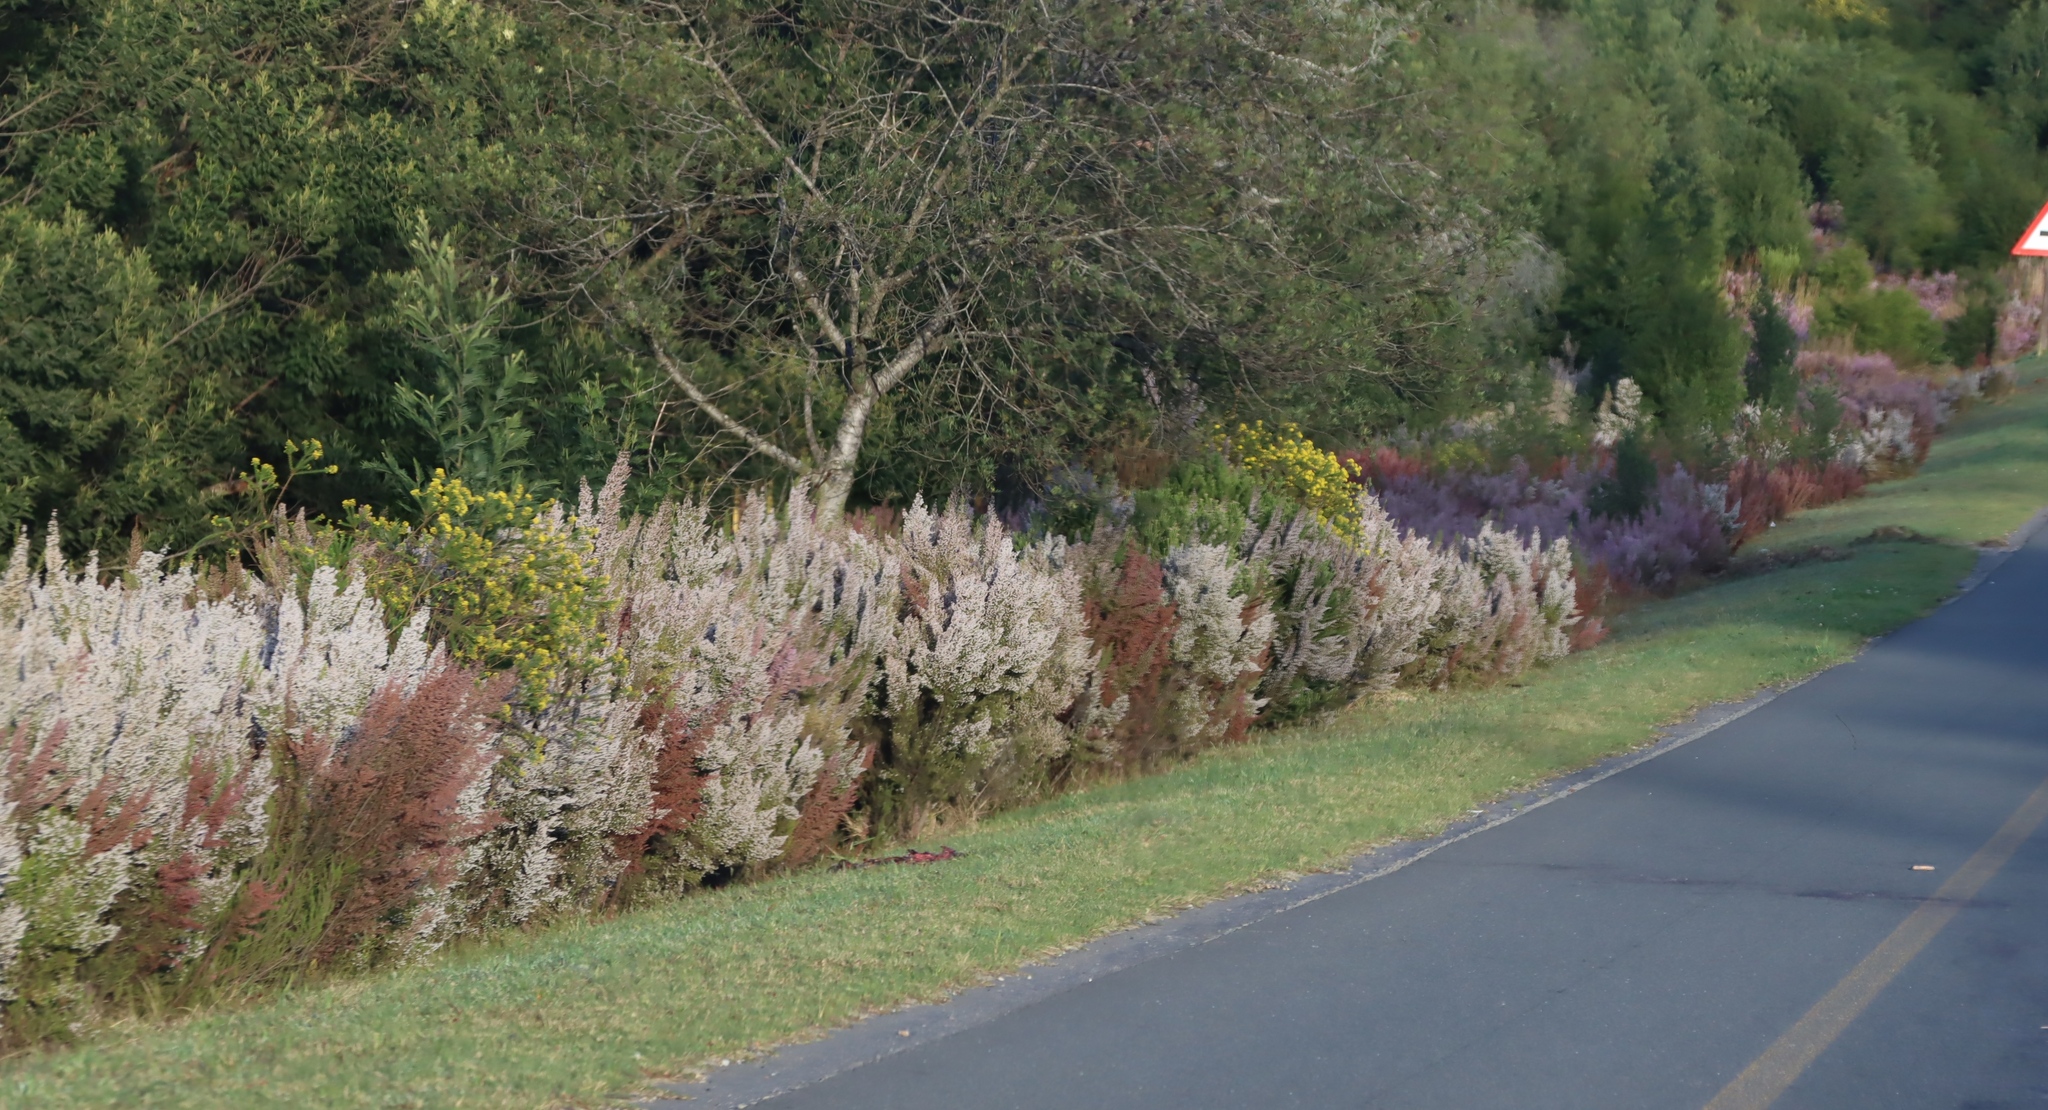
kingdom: Plantae
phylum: Tracheophyta
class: Magnoliopsida
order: Ericales
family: Ericaceae
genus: Erica
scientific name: Erica scabriuscula
